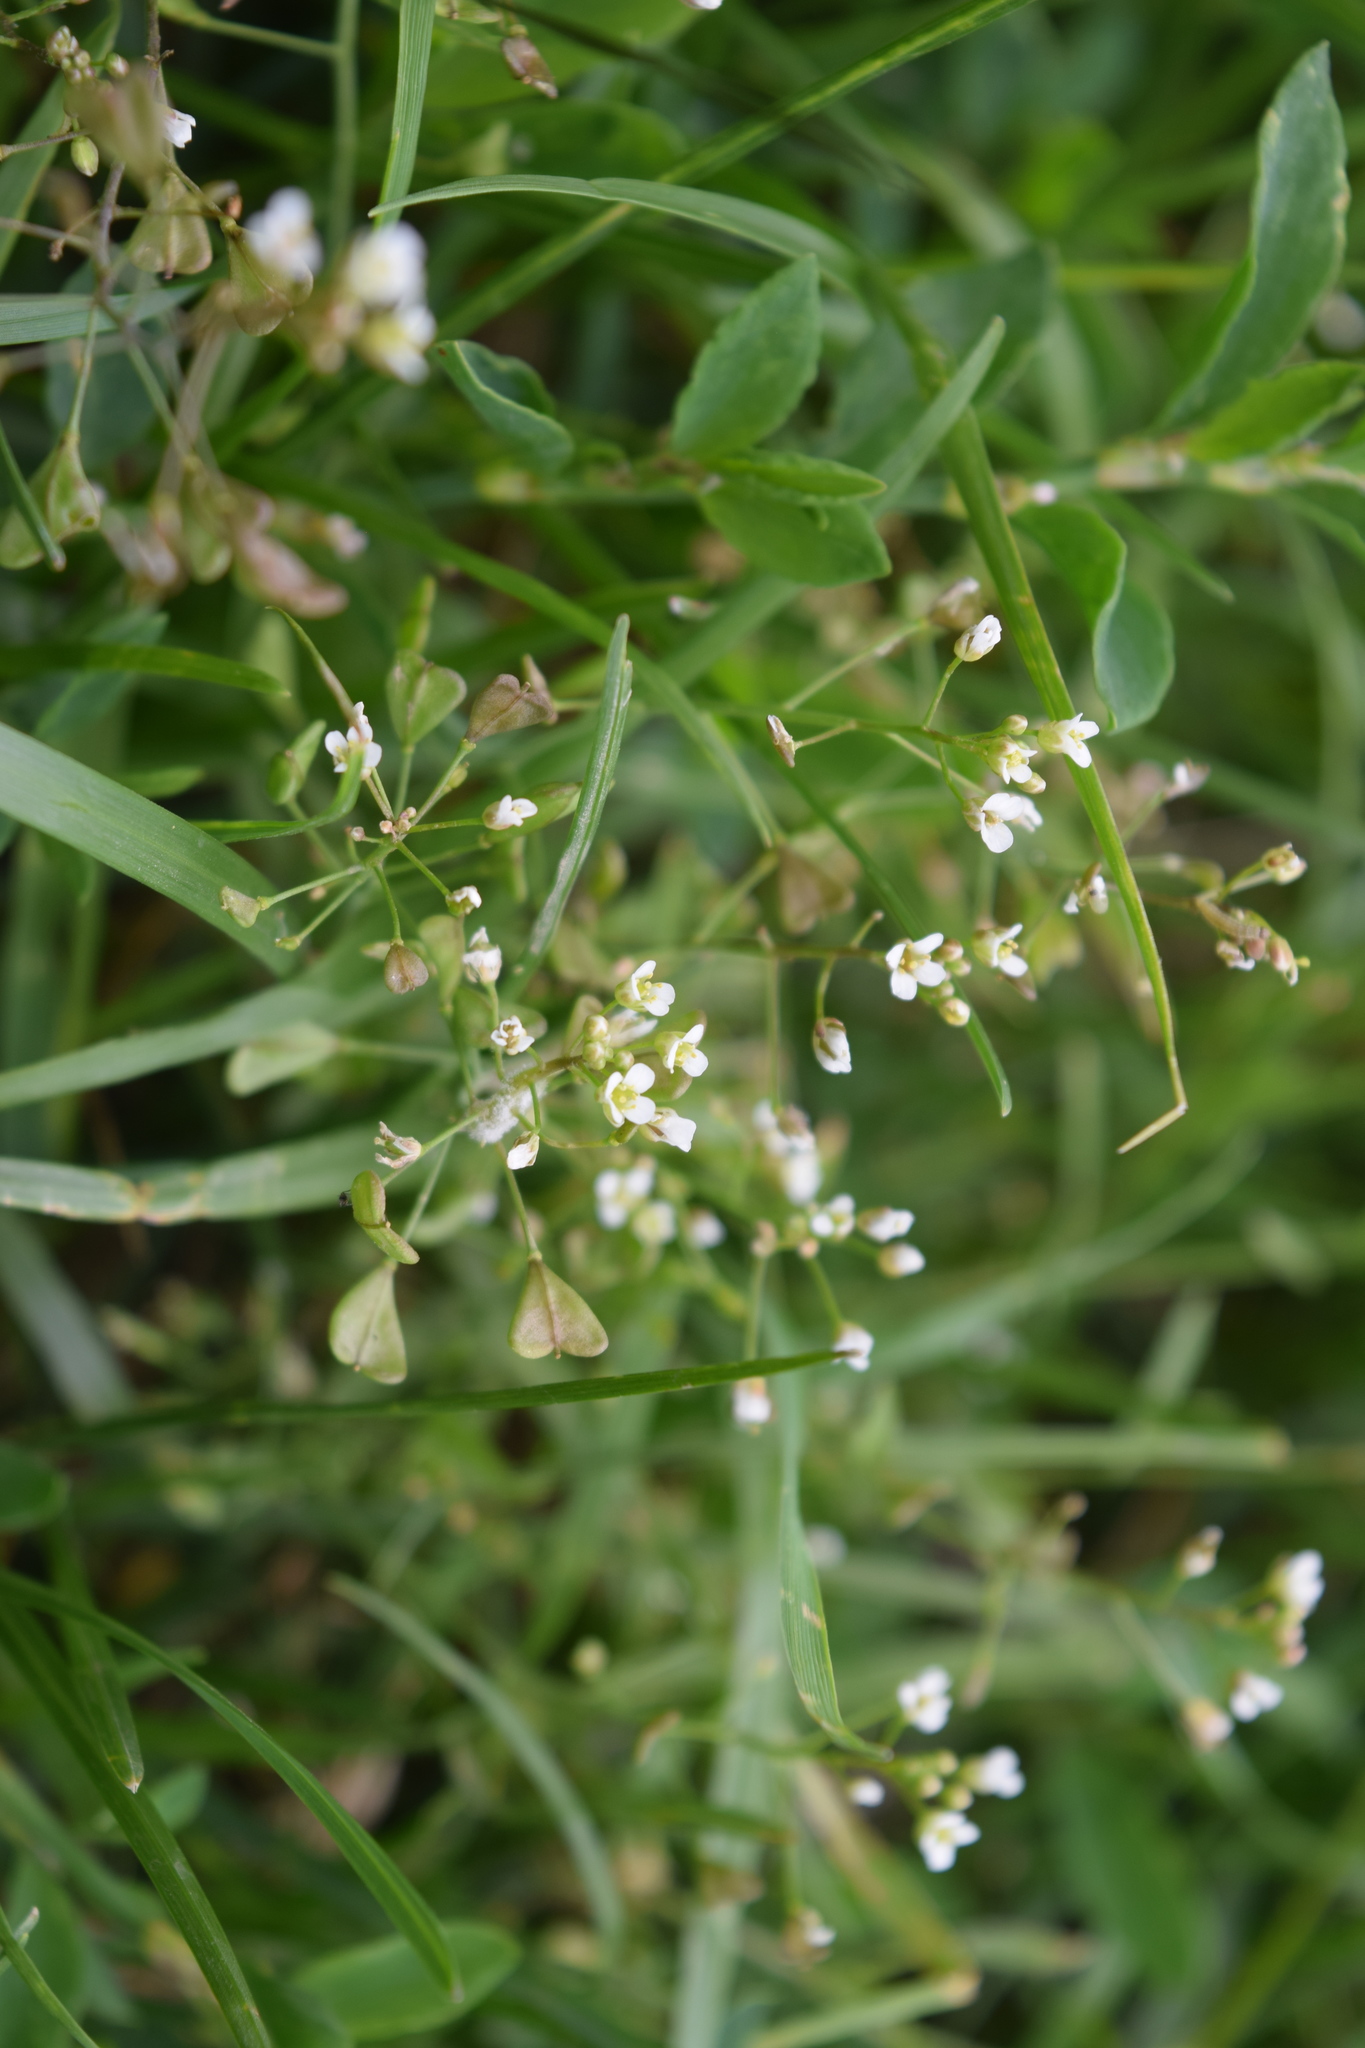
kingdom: Plantae
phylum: Tracheophyta
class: Magnoliopsida
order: Brassicales
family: Brassicaceae
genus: Capsella
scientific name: Capsella bursa-pastoris
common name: Shepherd's purse
